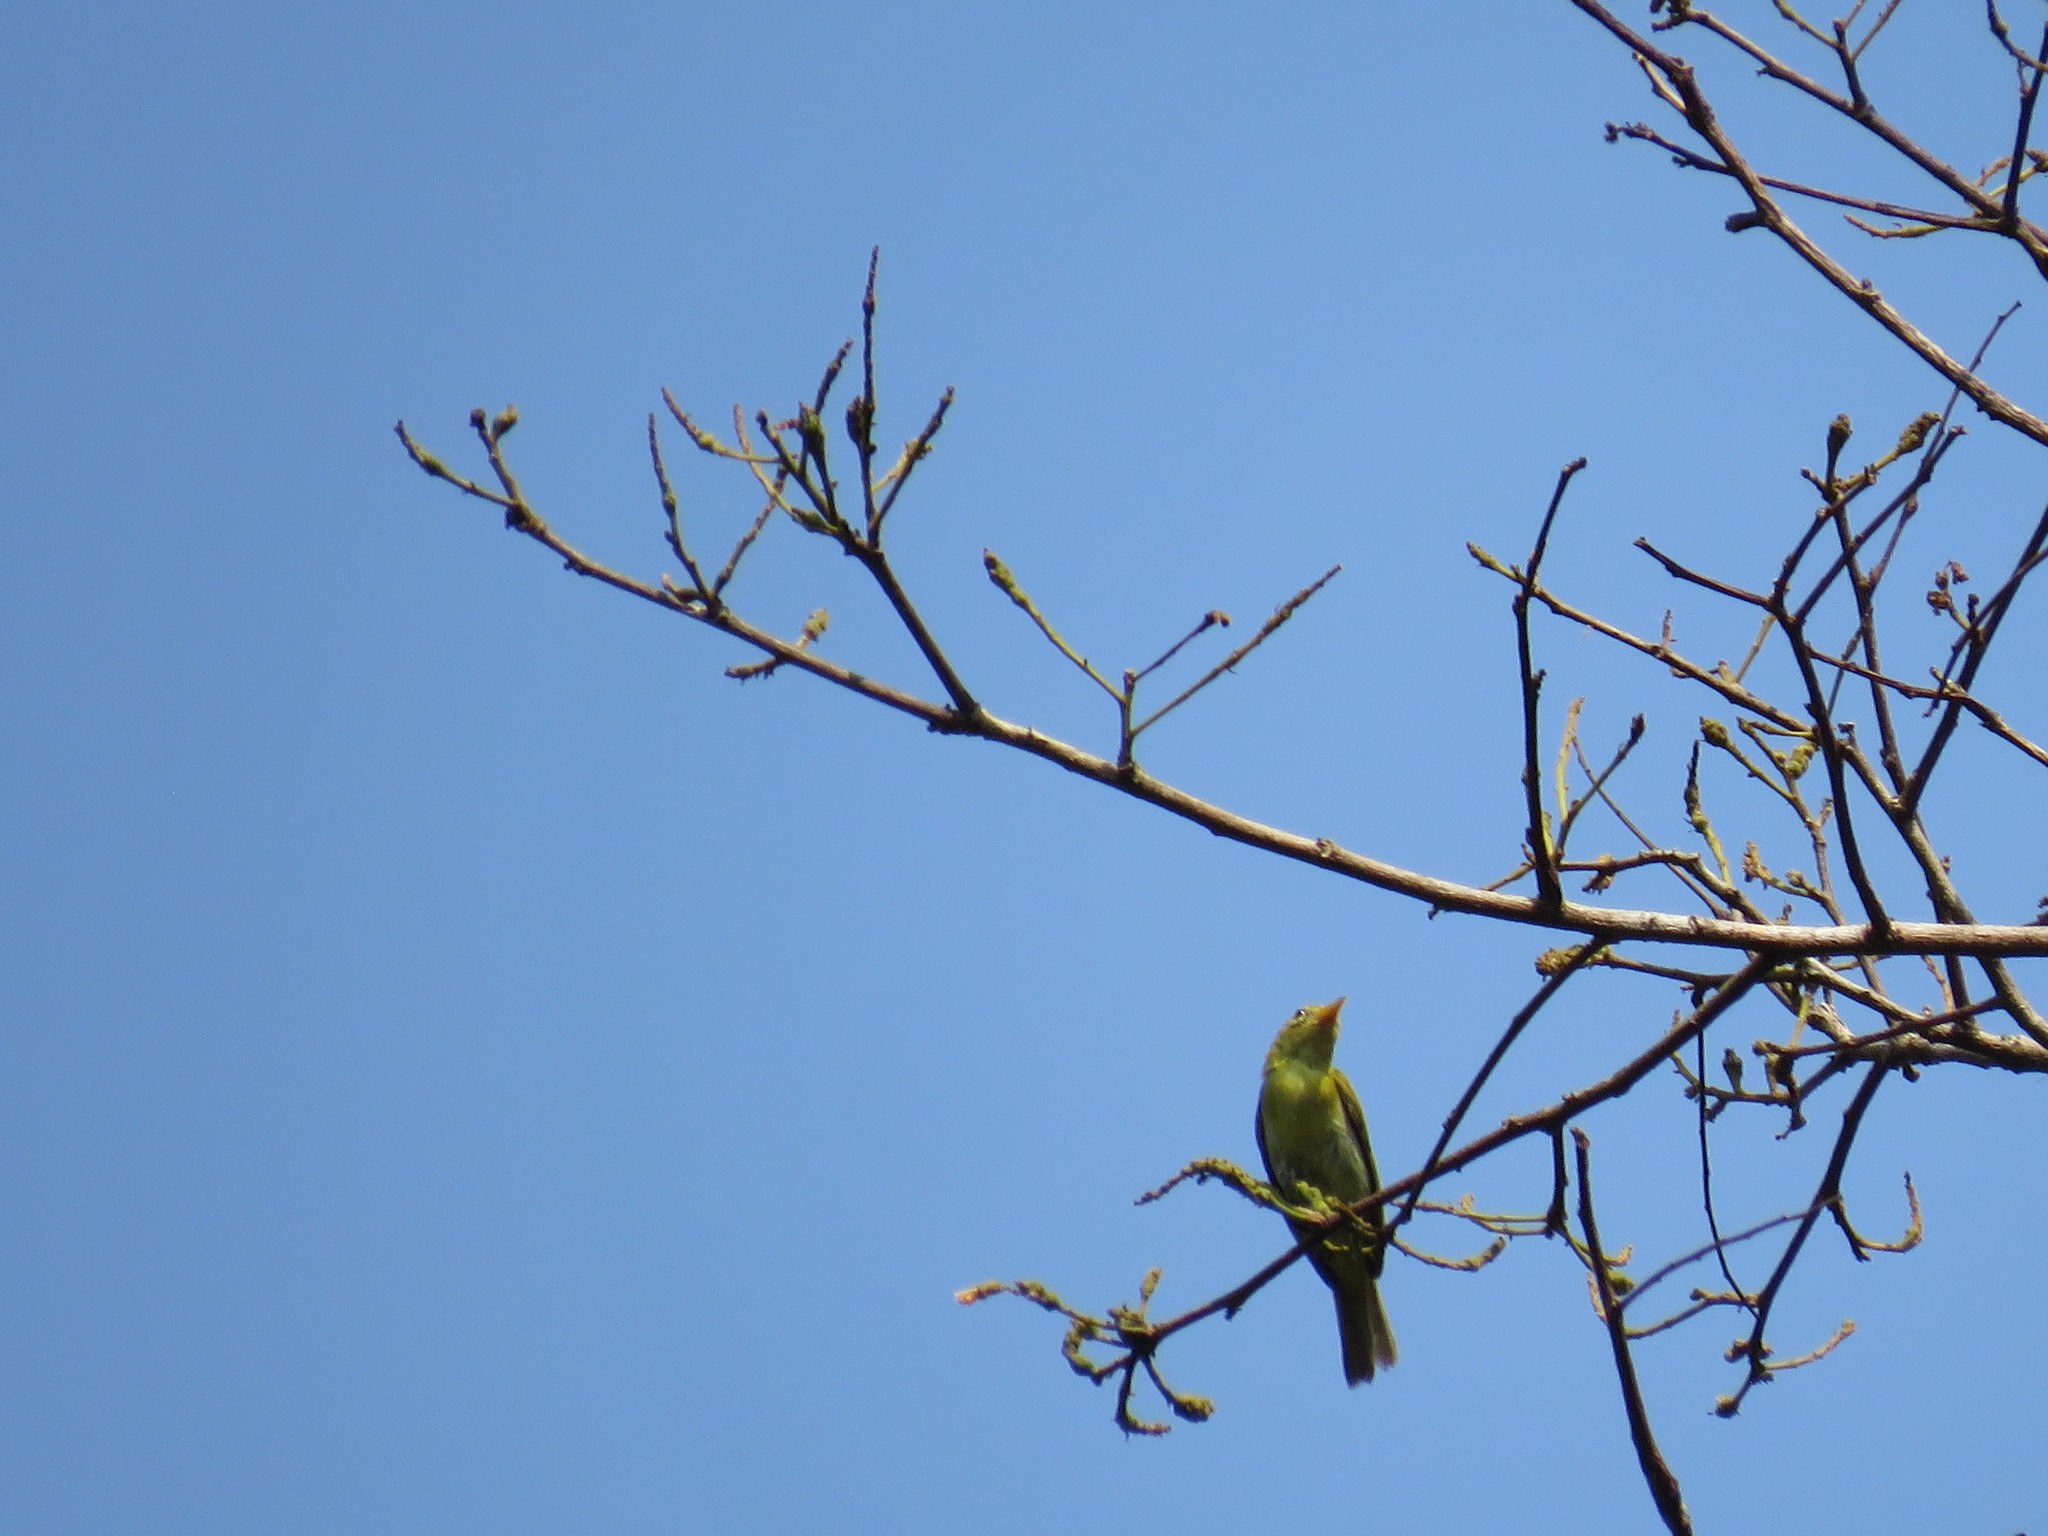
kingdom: Animalia
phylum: Chordata
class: Aves
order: Passeriformes
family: Thraupidae
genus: Hemithraupis
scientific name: Hemithraupis guira
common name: Guira tanager
